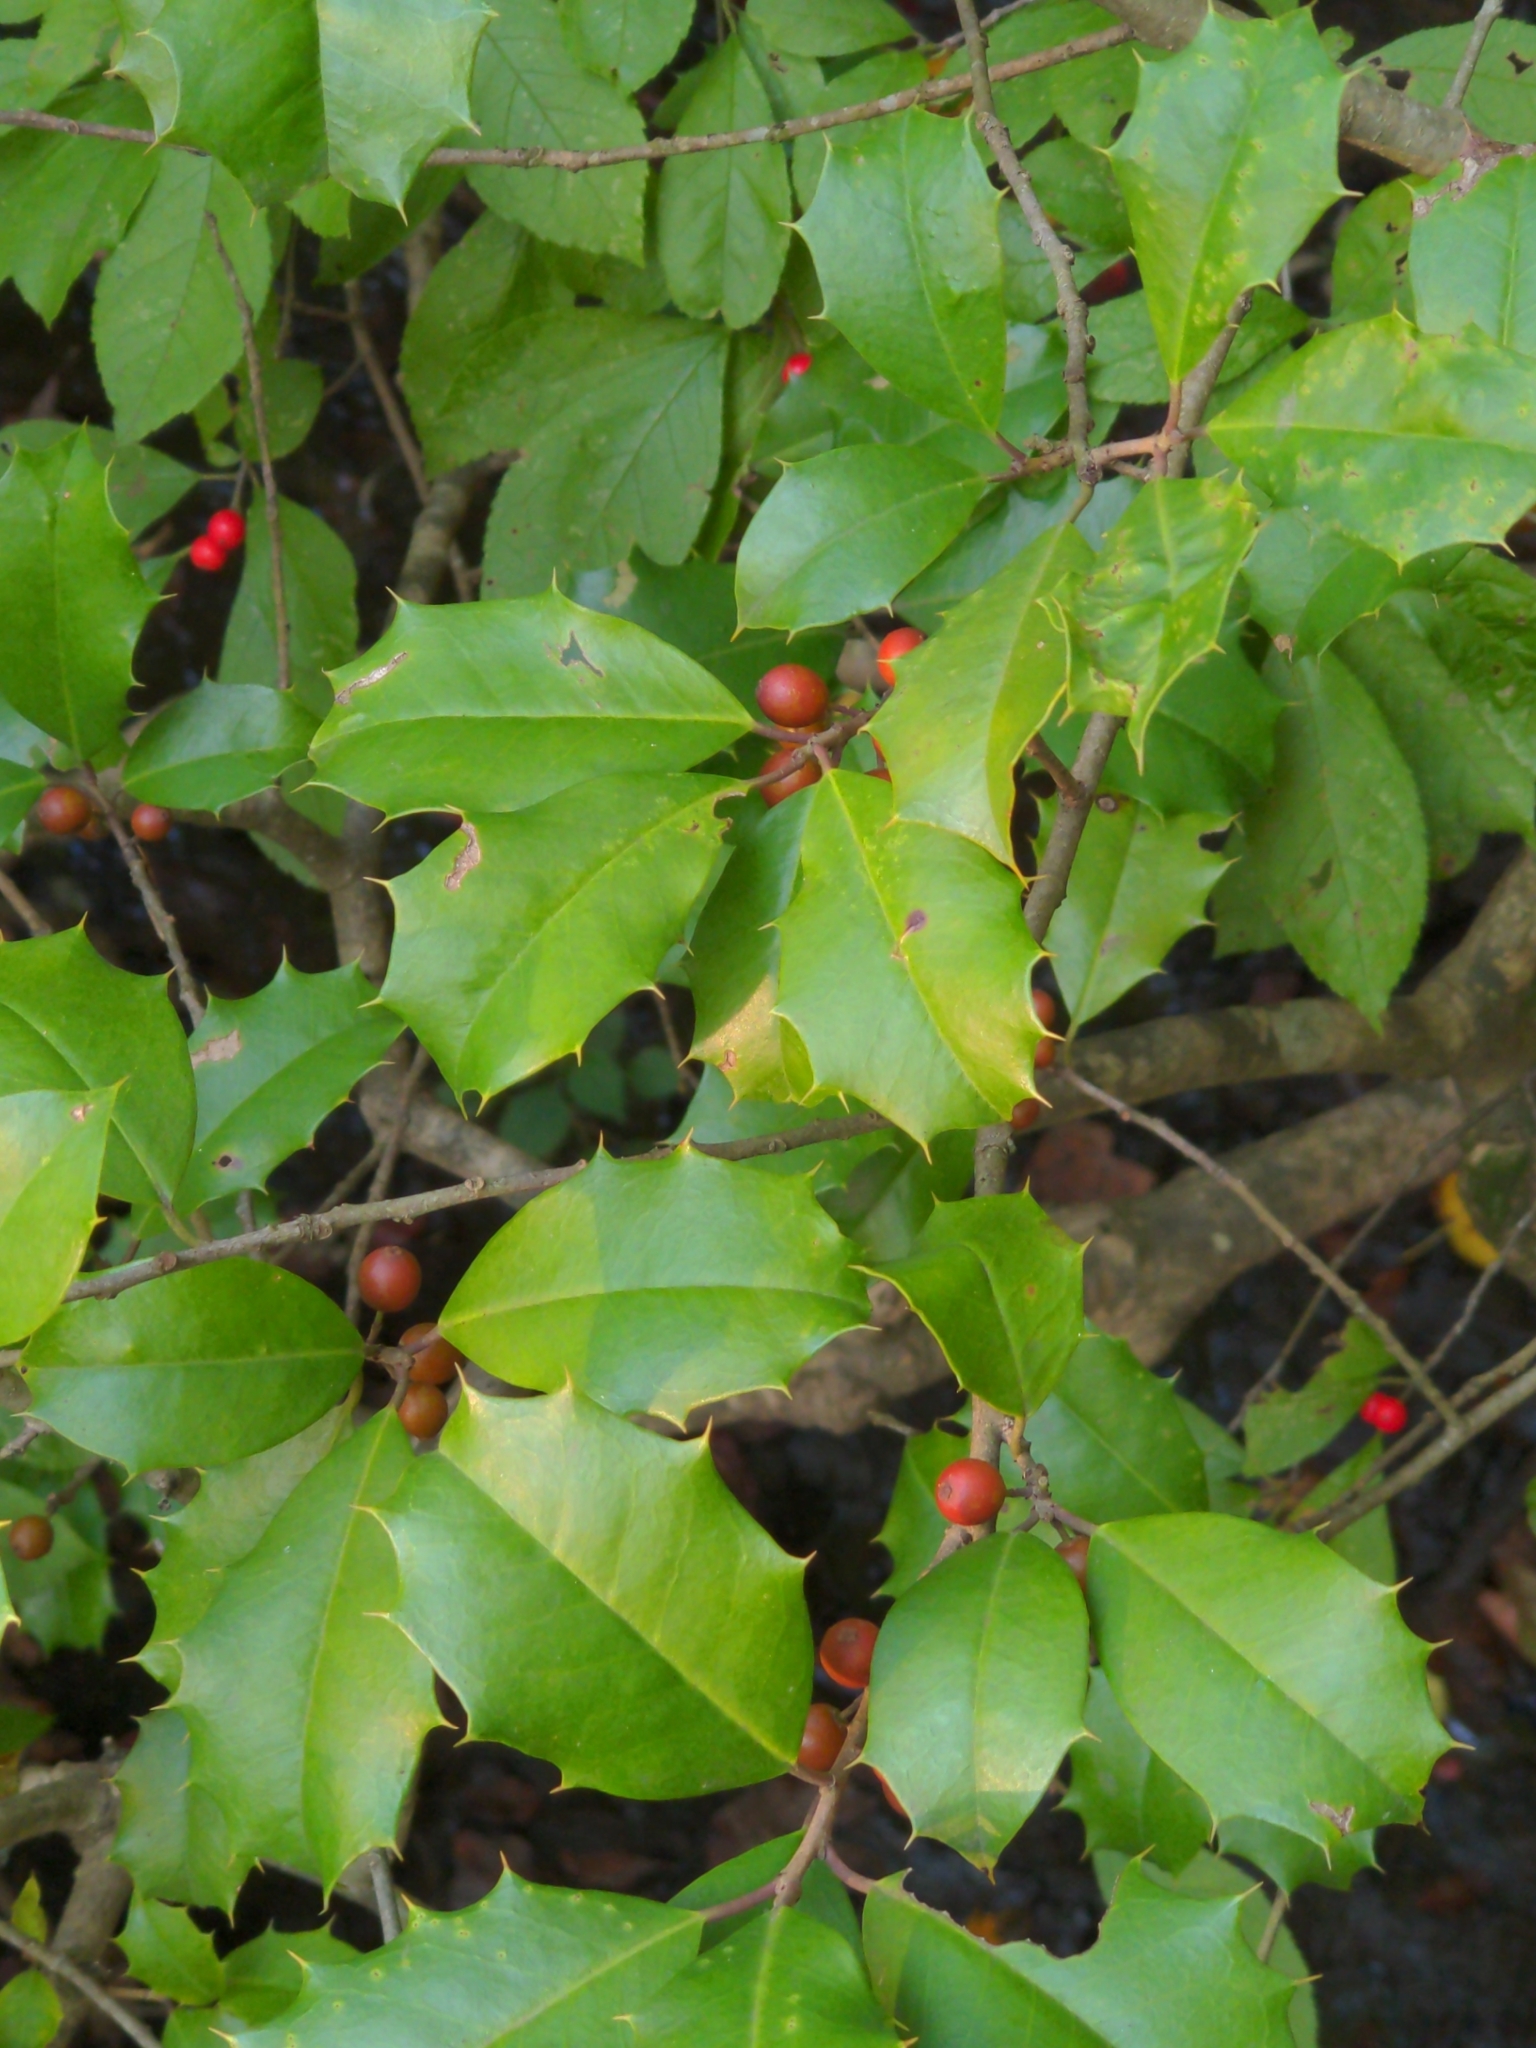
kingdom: Plantae
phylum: Tracheophyta
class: Magnoliopsida
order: Aquifoliales
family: Aquifoliaceae
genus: Ilex
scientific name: Ilex opaca
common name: American holly
